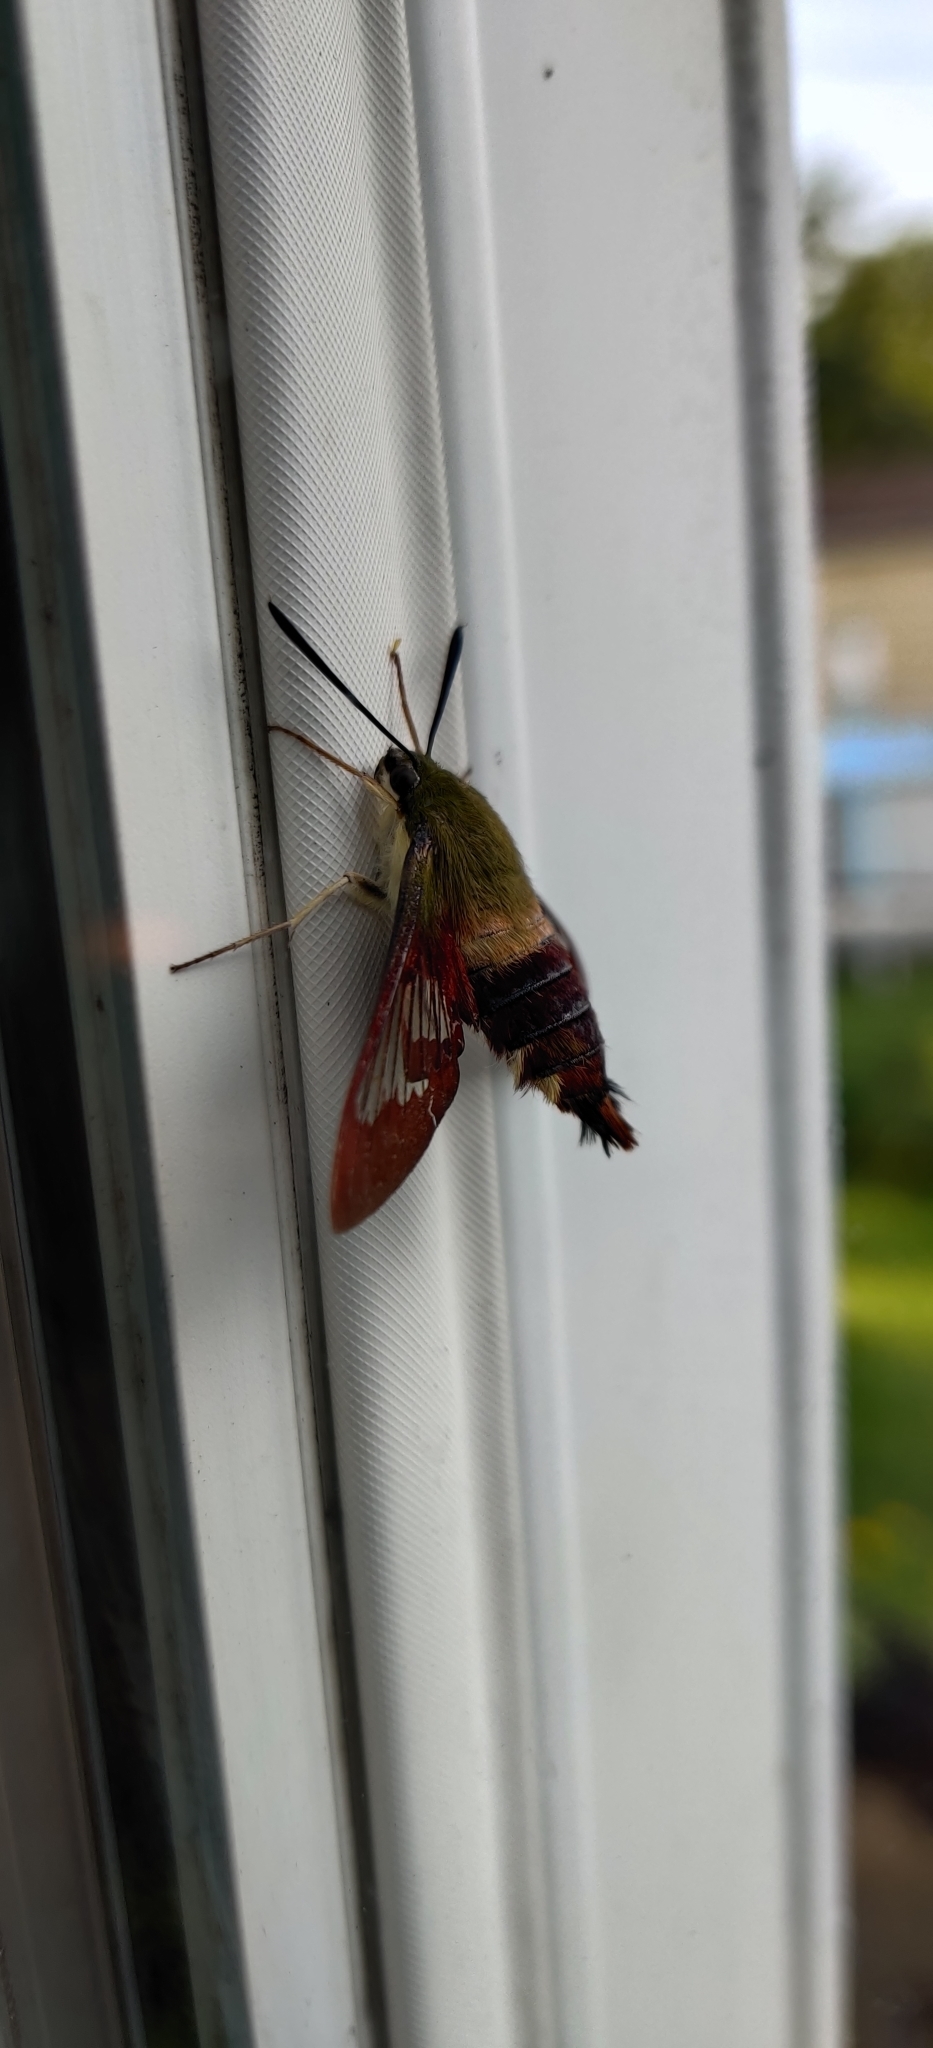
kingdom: Animalia
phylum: Arthropoda
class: Insecta
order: Lepidoptera
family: Sphingidae
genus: Hemaris
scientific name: Hemaris thysbe
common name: Common clear-wing
